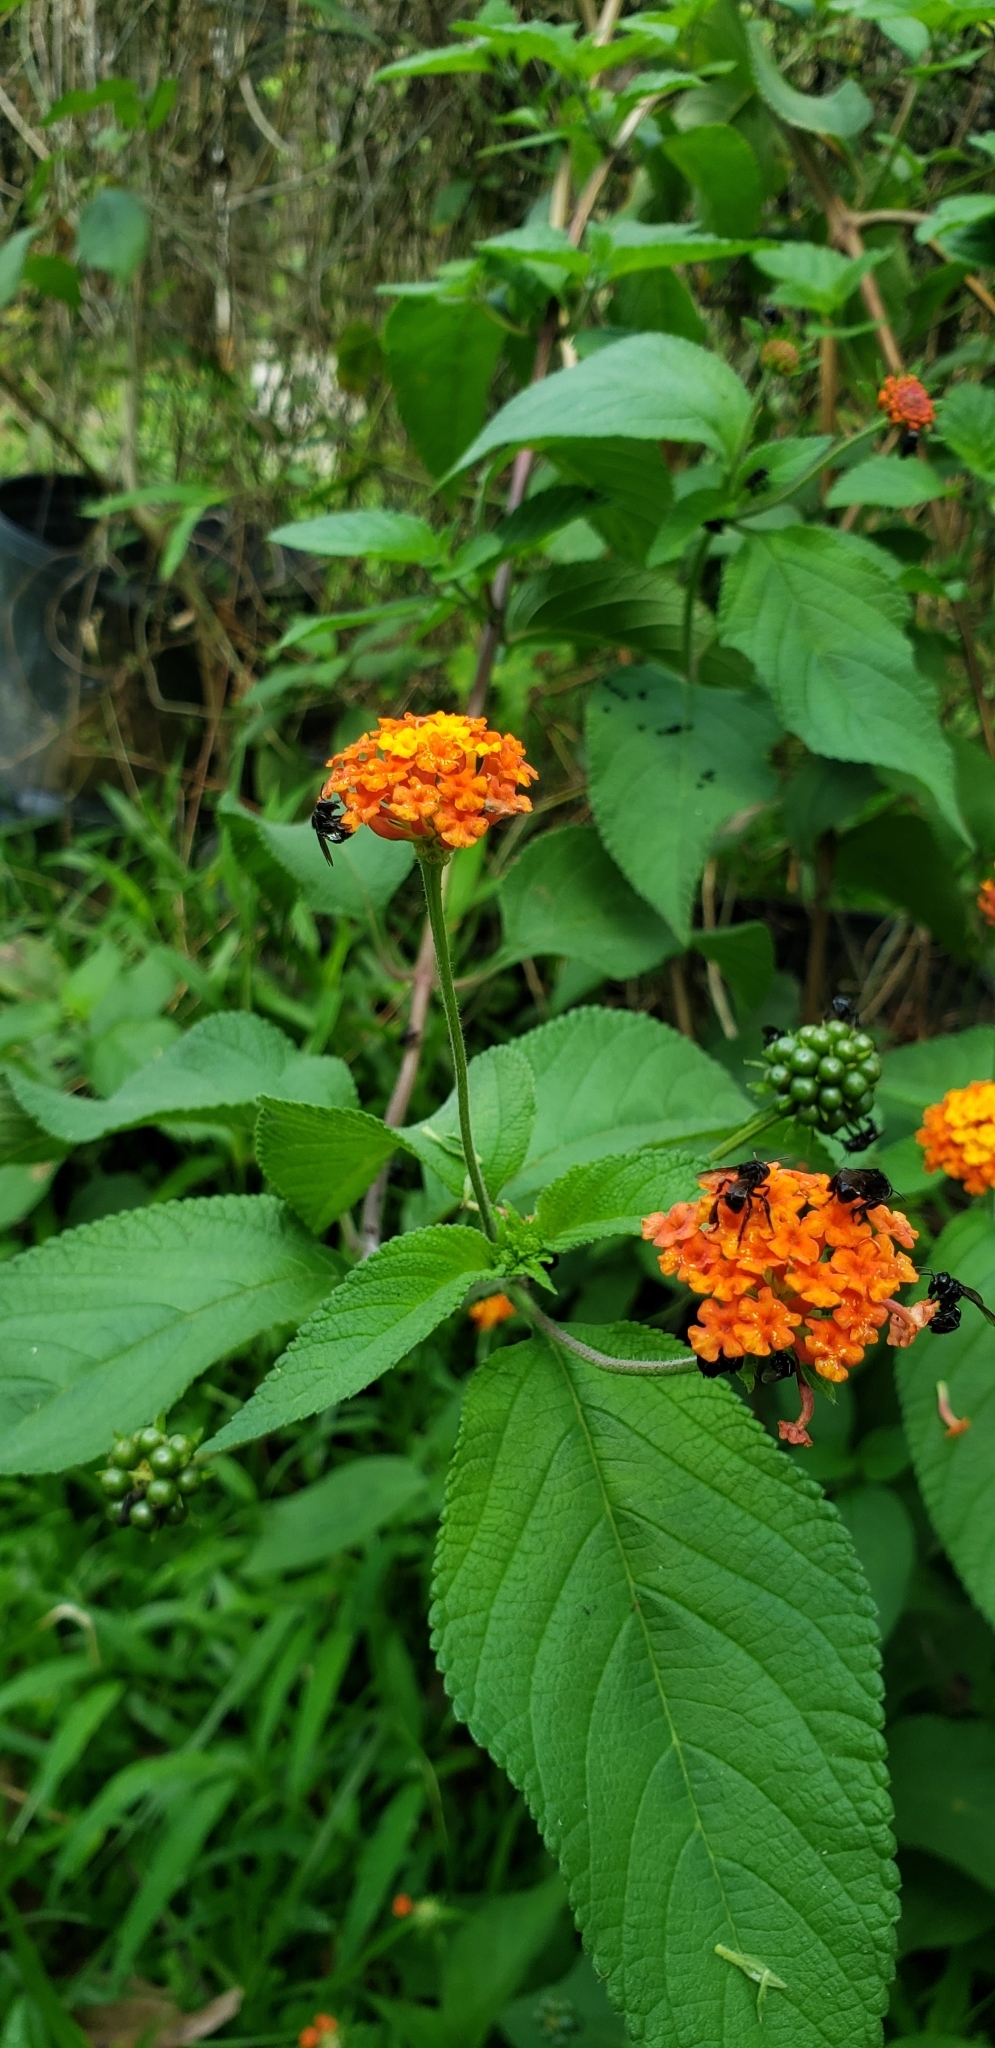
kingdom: Plantae
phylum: Tracheophyta
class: Magnoliopsida
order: Lamiales
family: Verbenaceae
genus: Lantana
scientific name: Lantana camara
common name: Lantana
